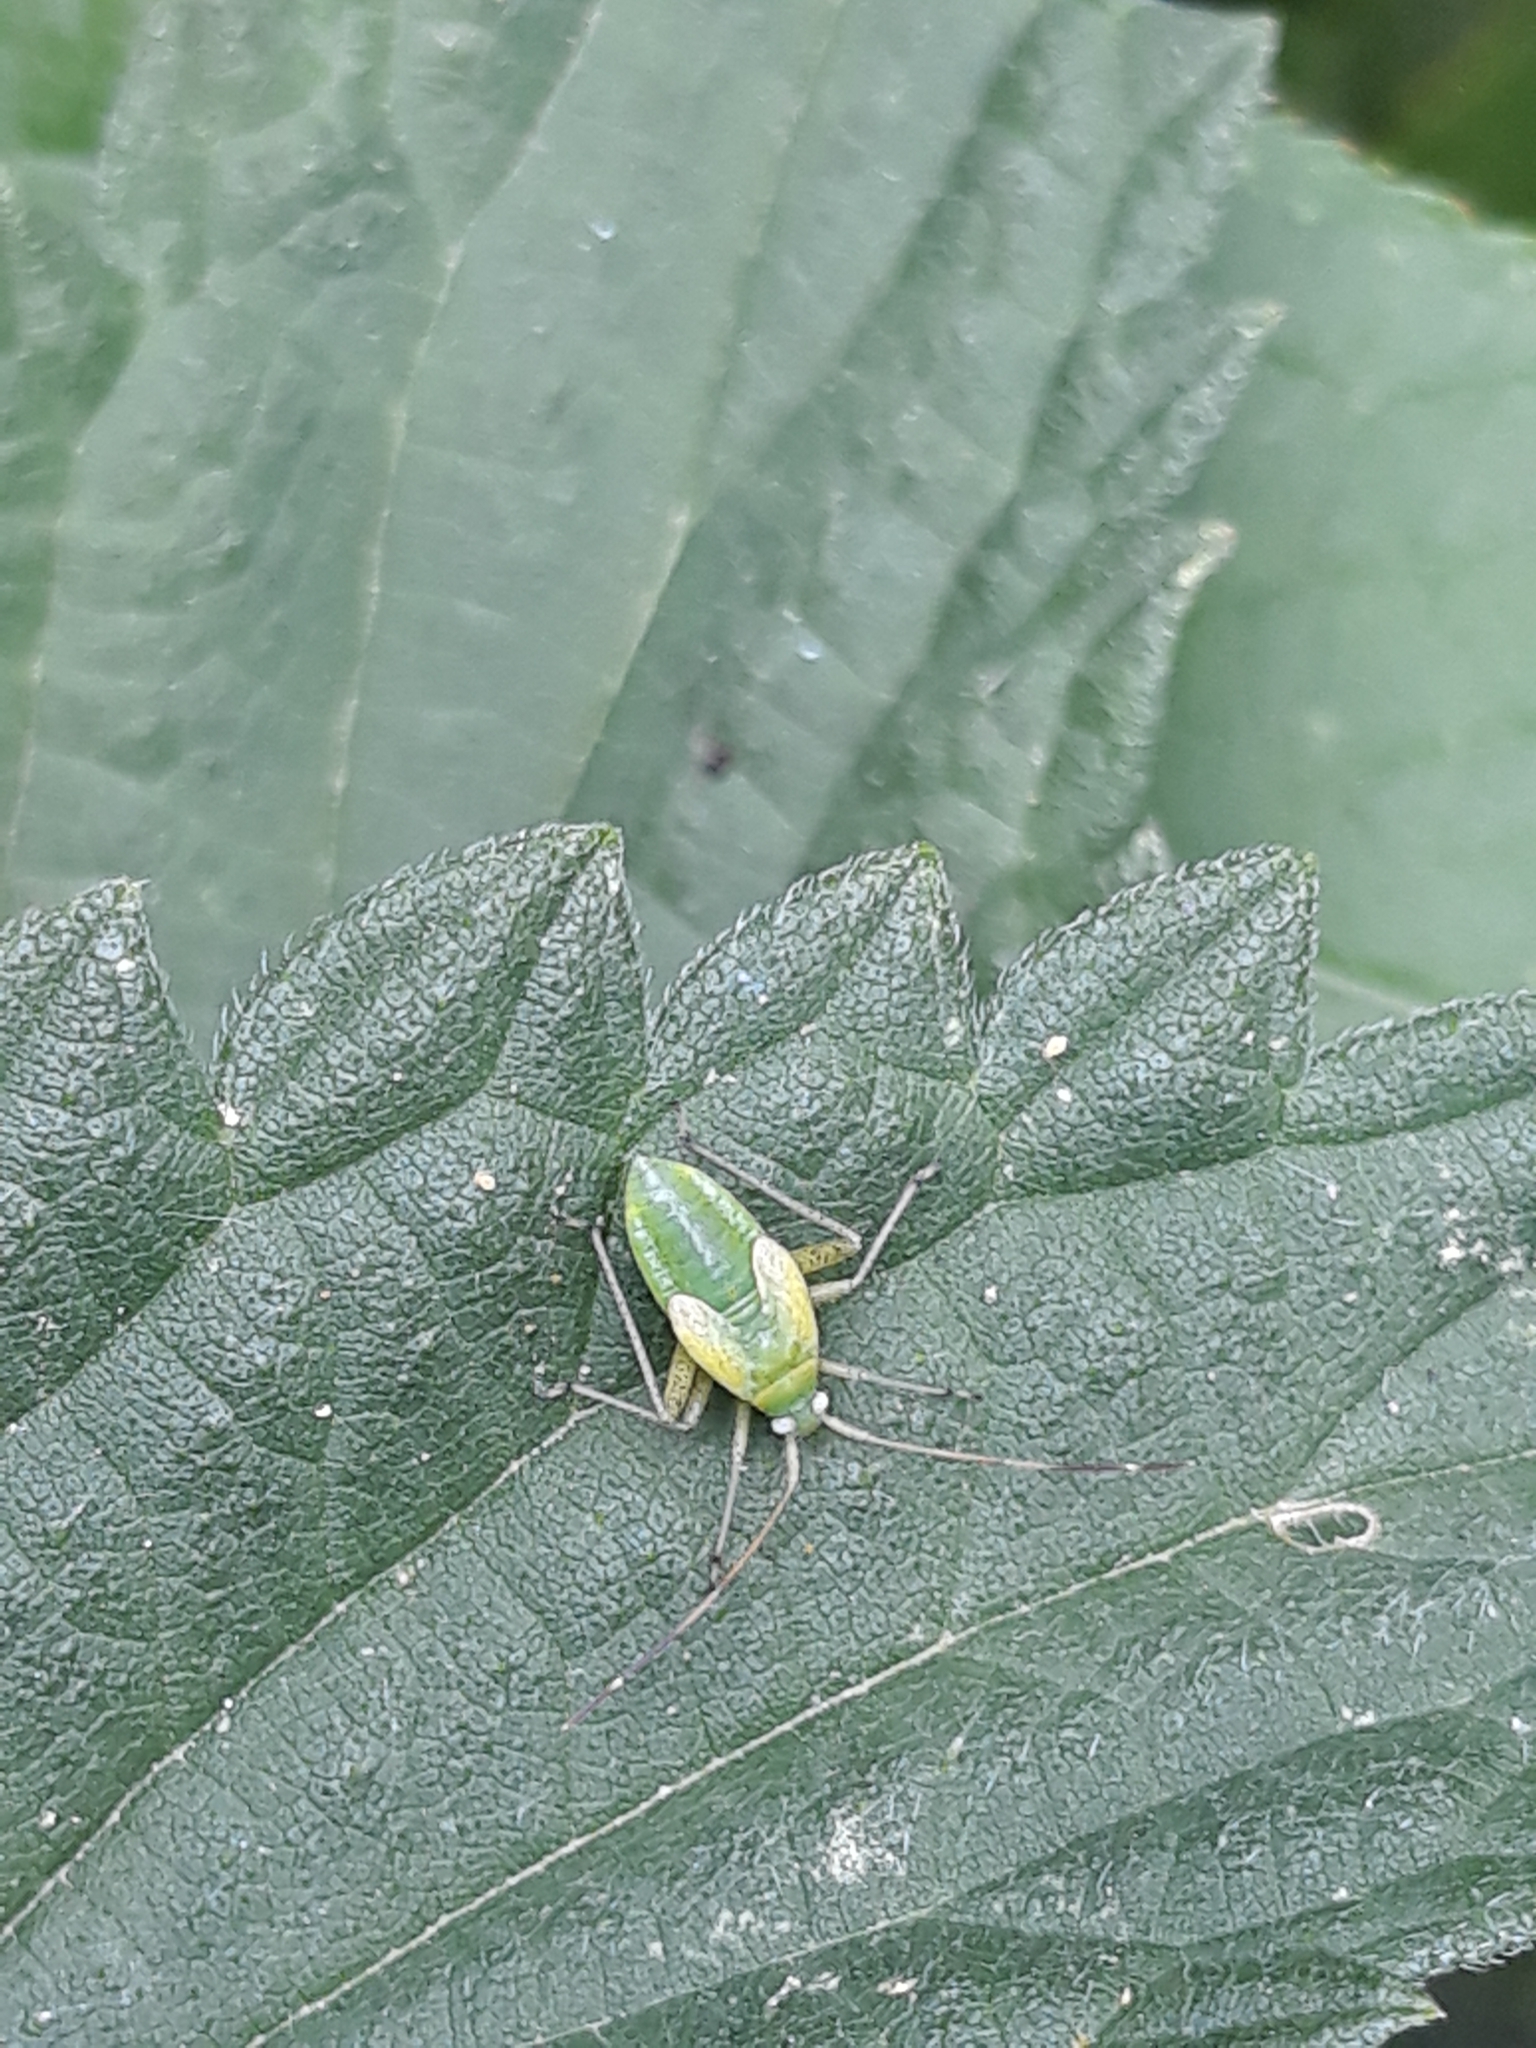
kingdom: Animalia
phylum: Arthropoda
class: Insecta
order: Hemiptera
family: Miridae
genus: Adelphocoris
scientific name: Adelphocoris quadripunctatus
